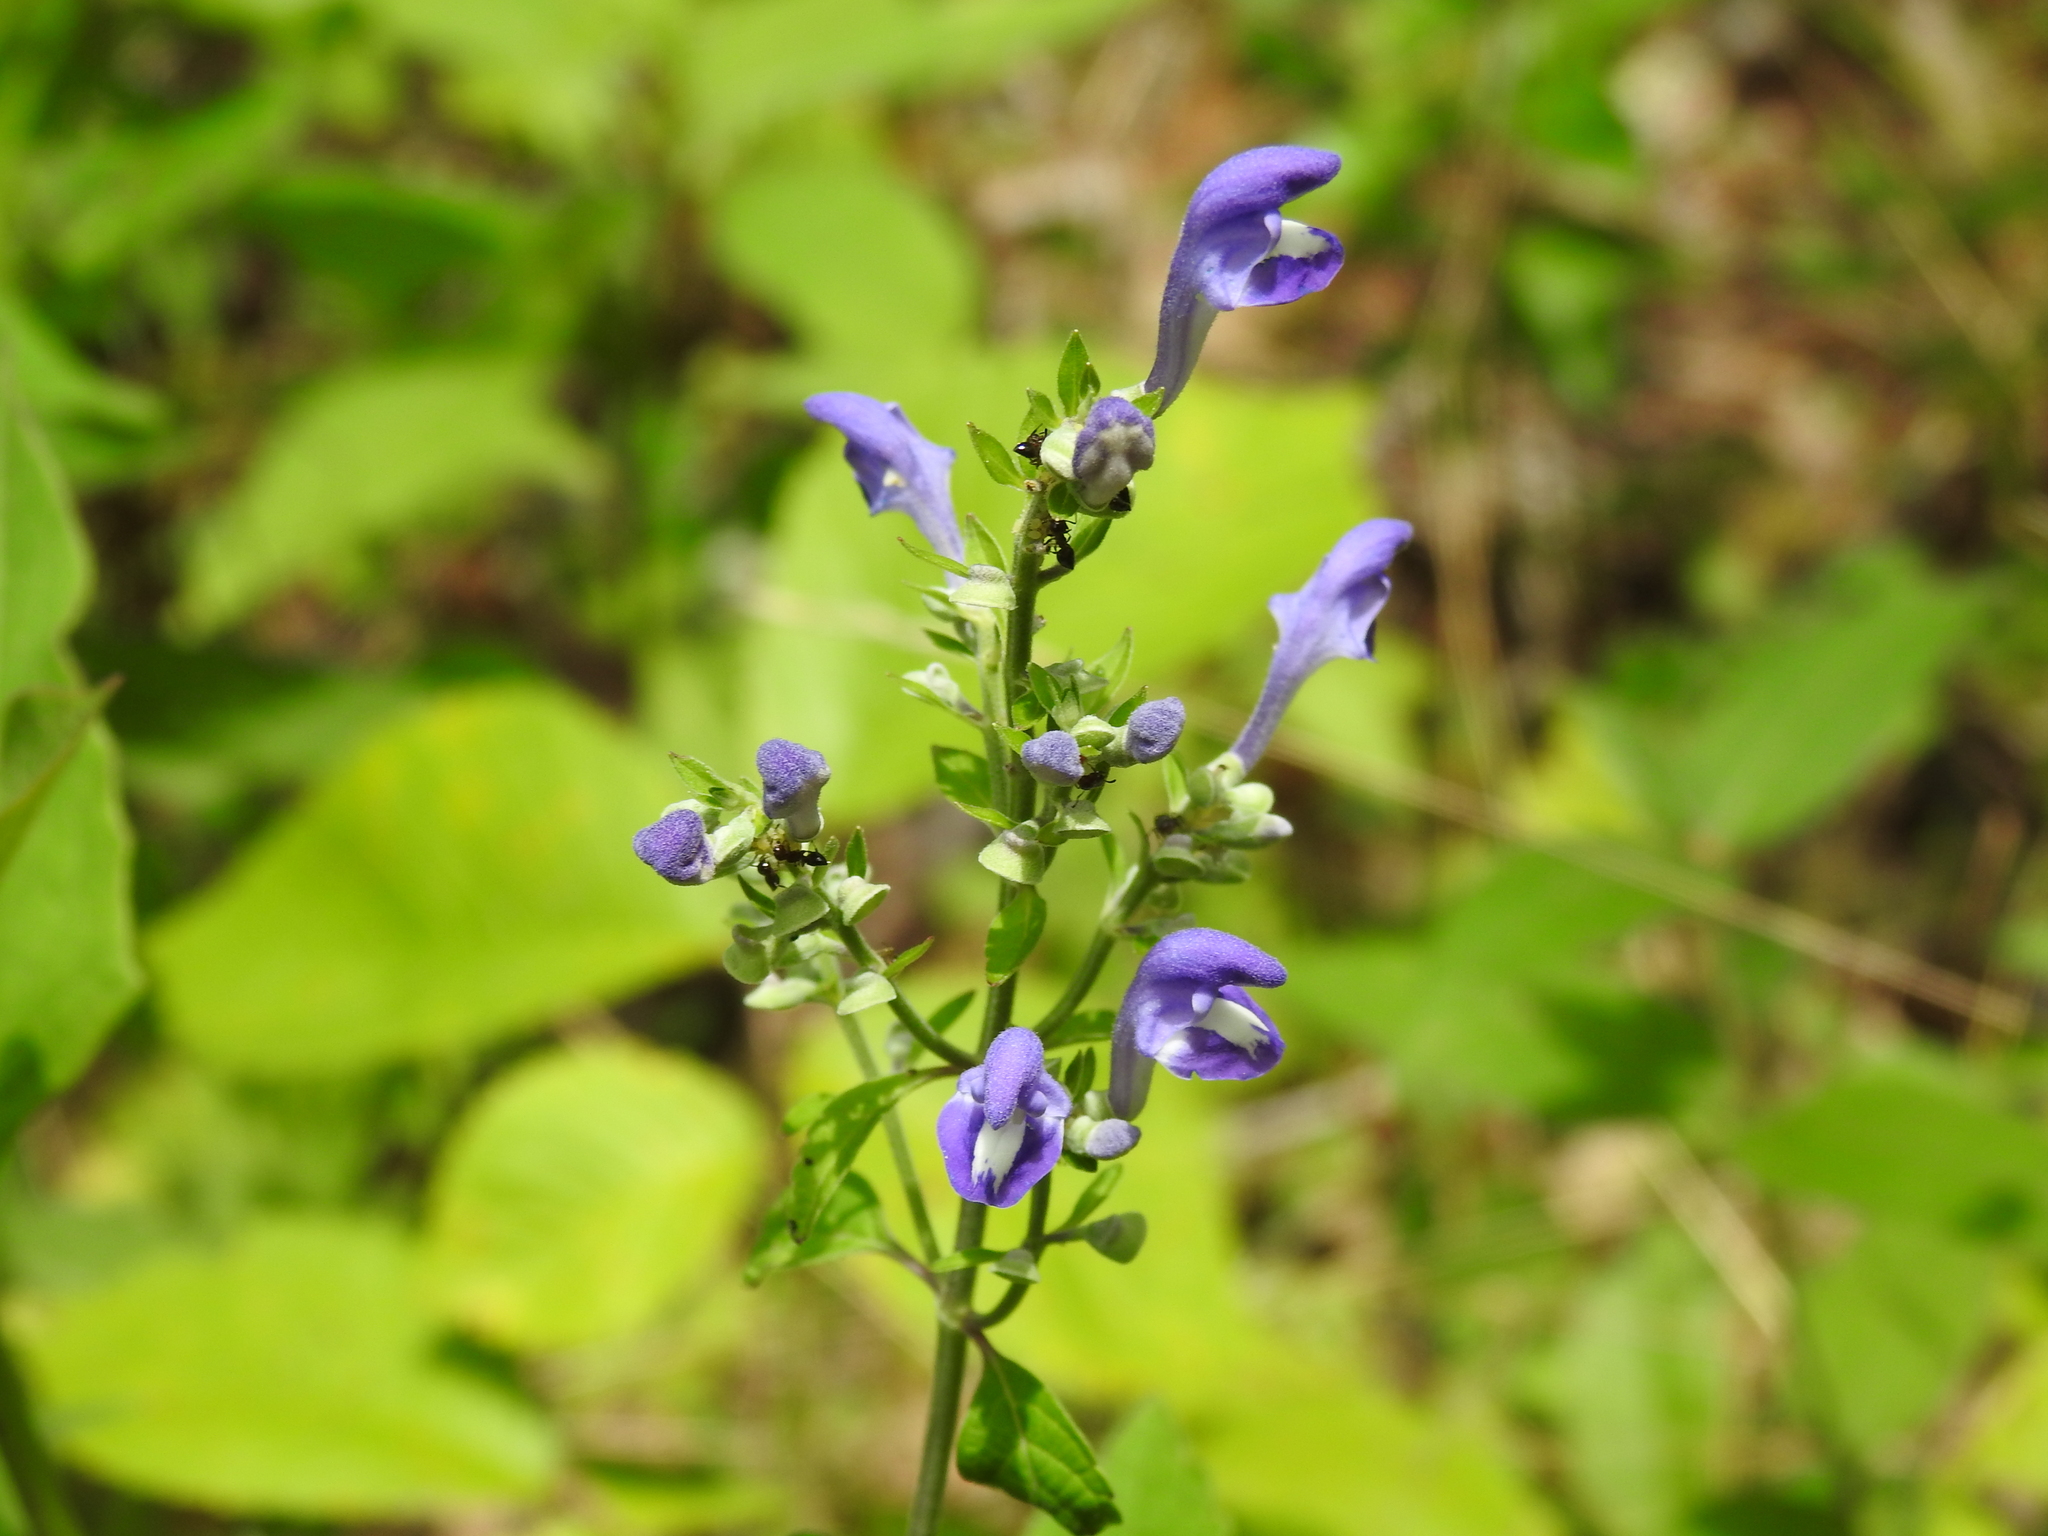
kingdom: Plantae
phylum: Tracheophyta
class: Magnoliopsida
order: Lamiales
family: Lamiaceae
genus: Scutellaria
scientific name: Scutellaria incana
